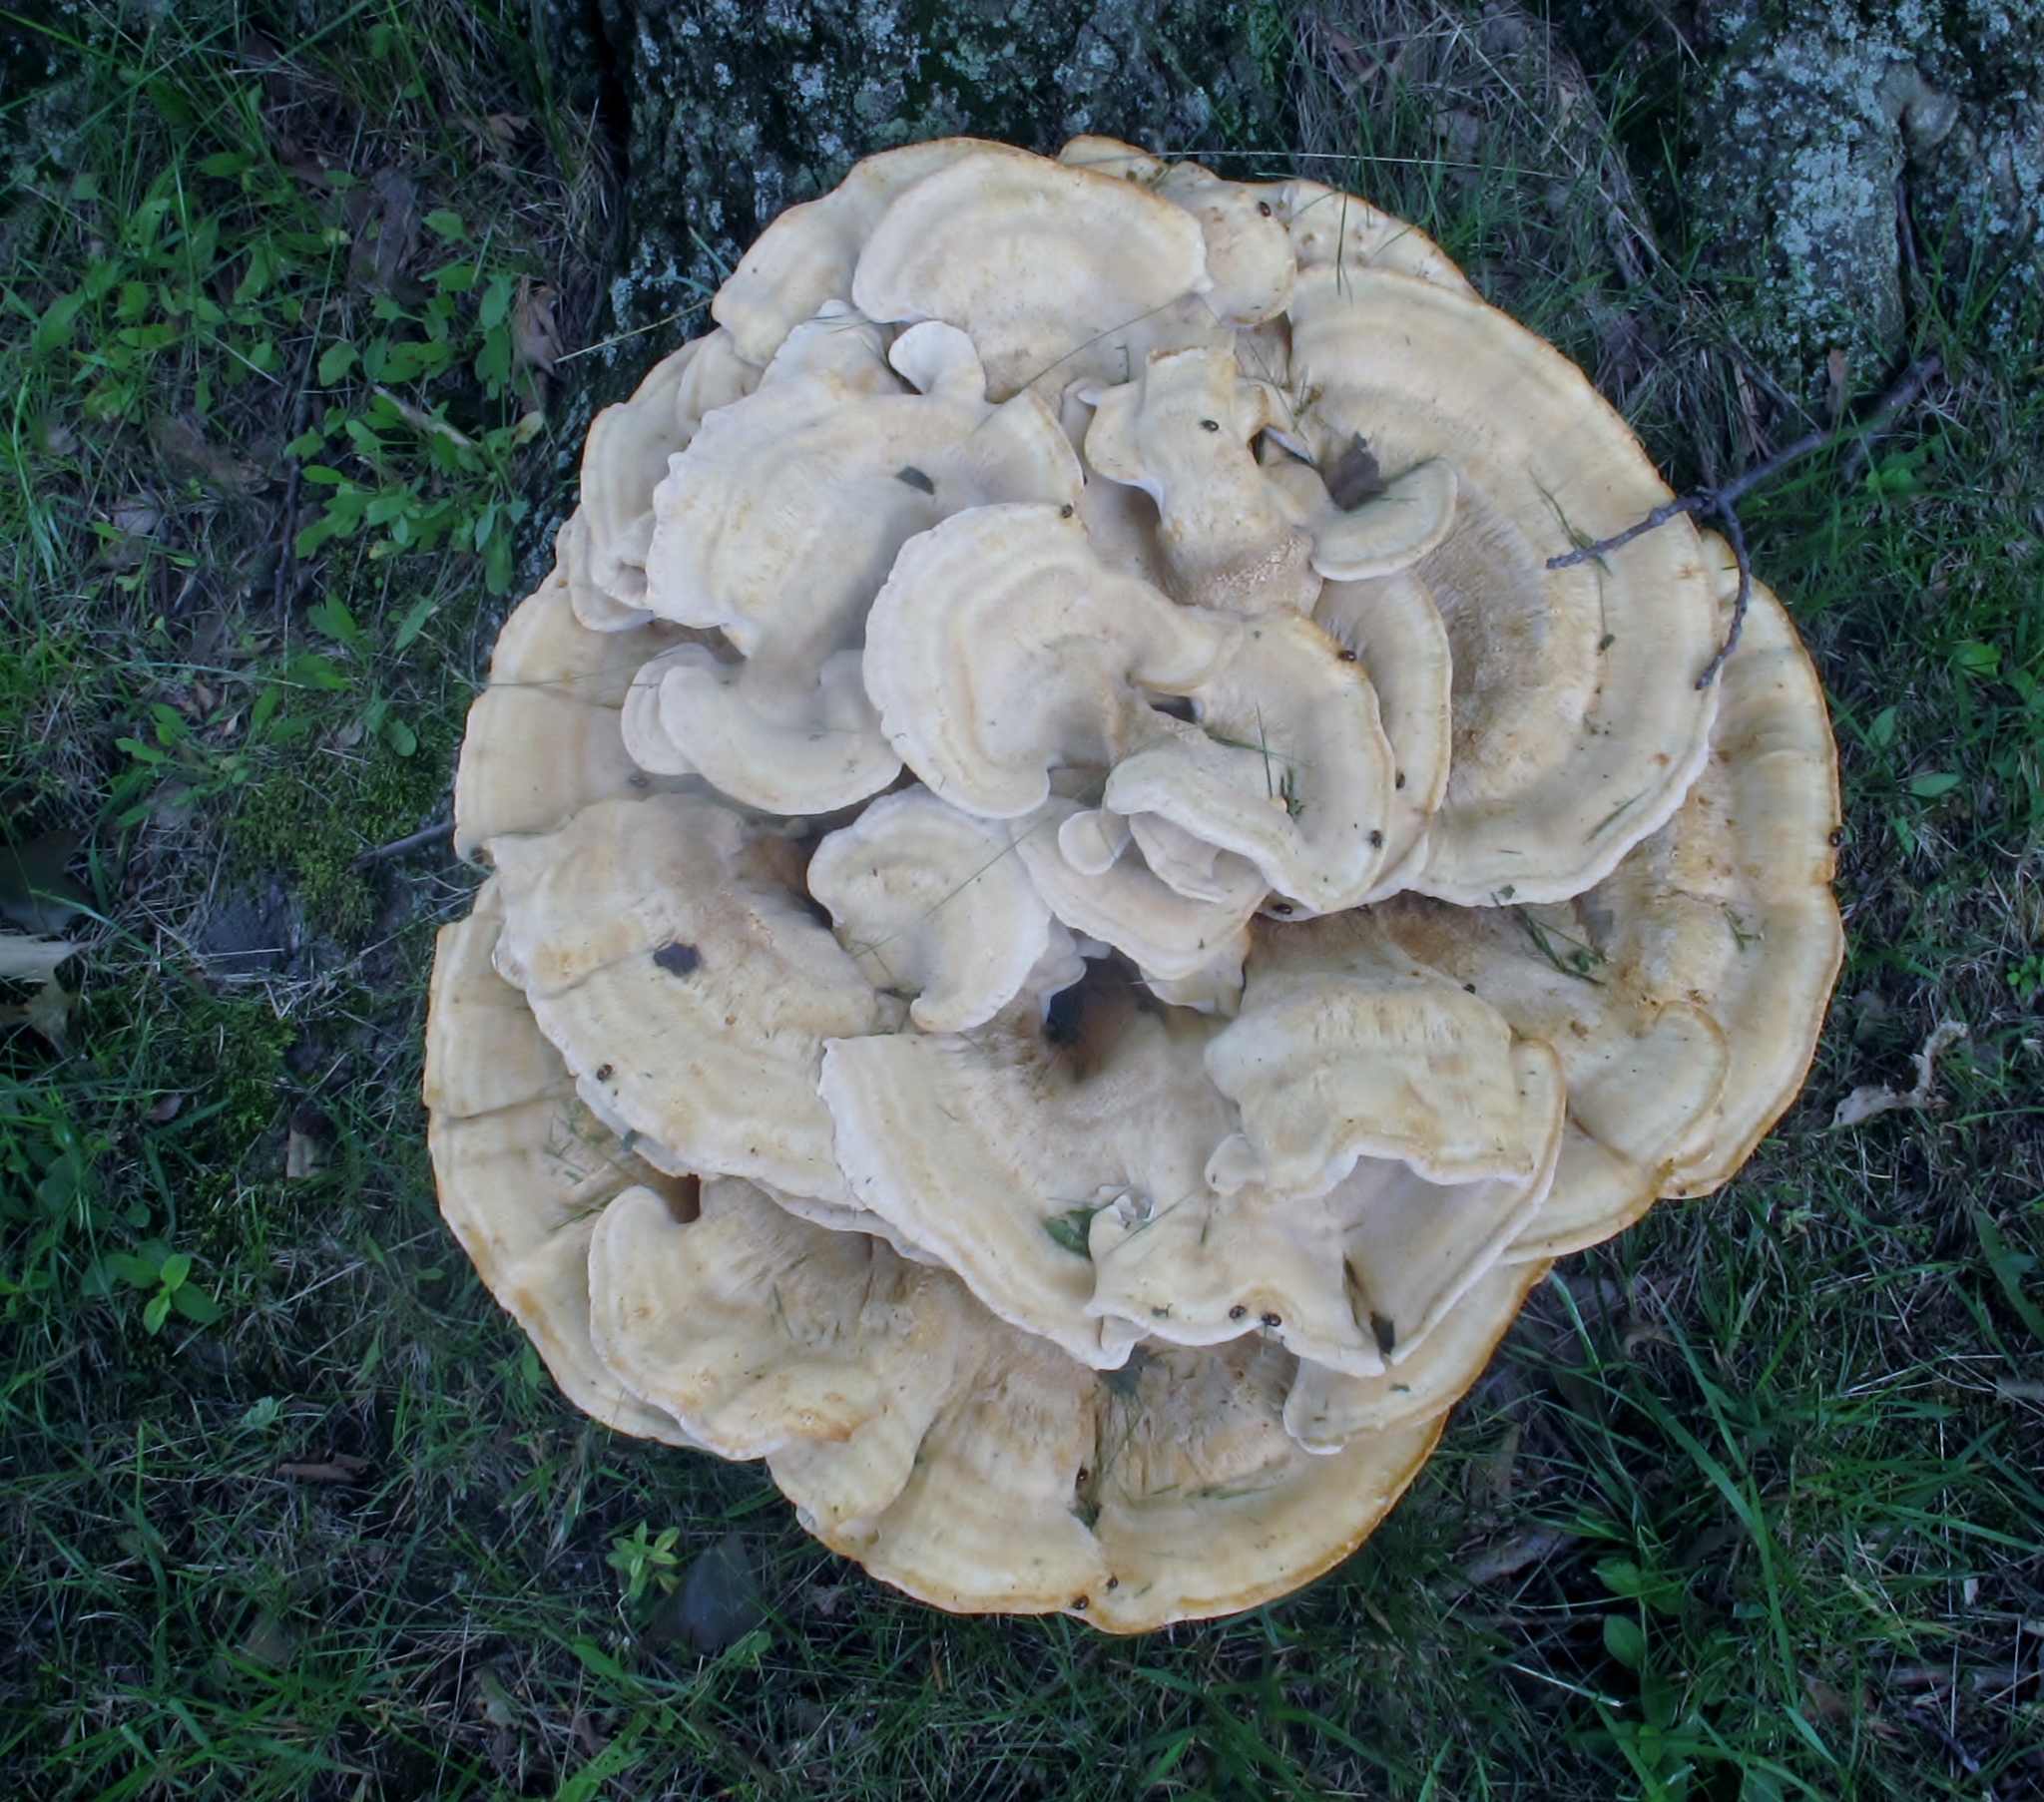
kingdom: Fungi
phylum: Basidiomycota
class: Agaricomycetes
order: Russulales
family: Bondarzewiaceae
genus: Bondarzewia
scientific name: Bondarzewia berkeleyi
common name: Berkeley's polypore
